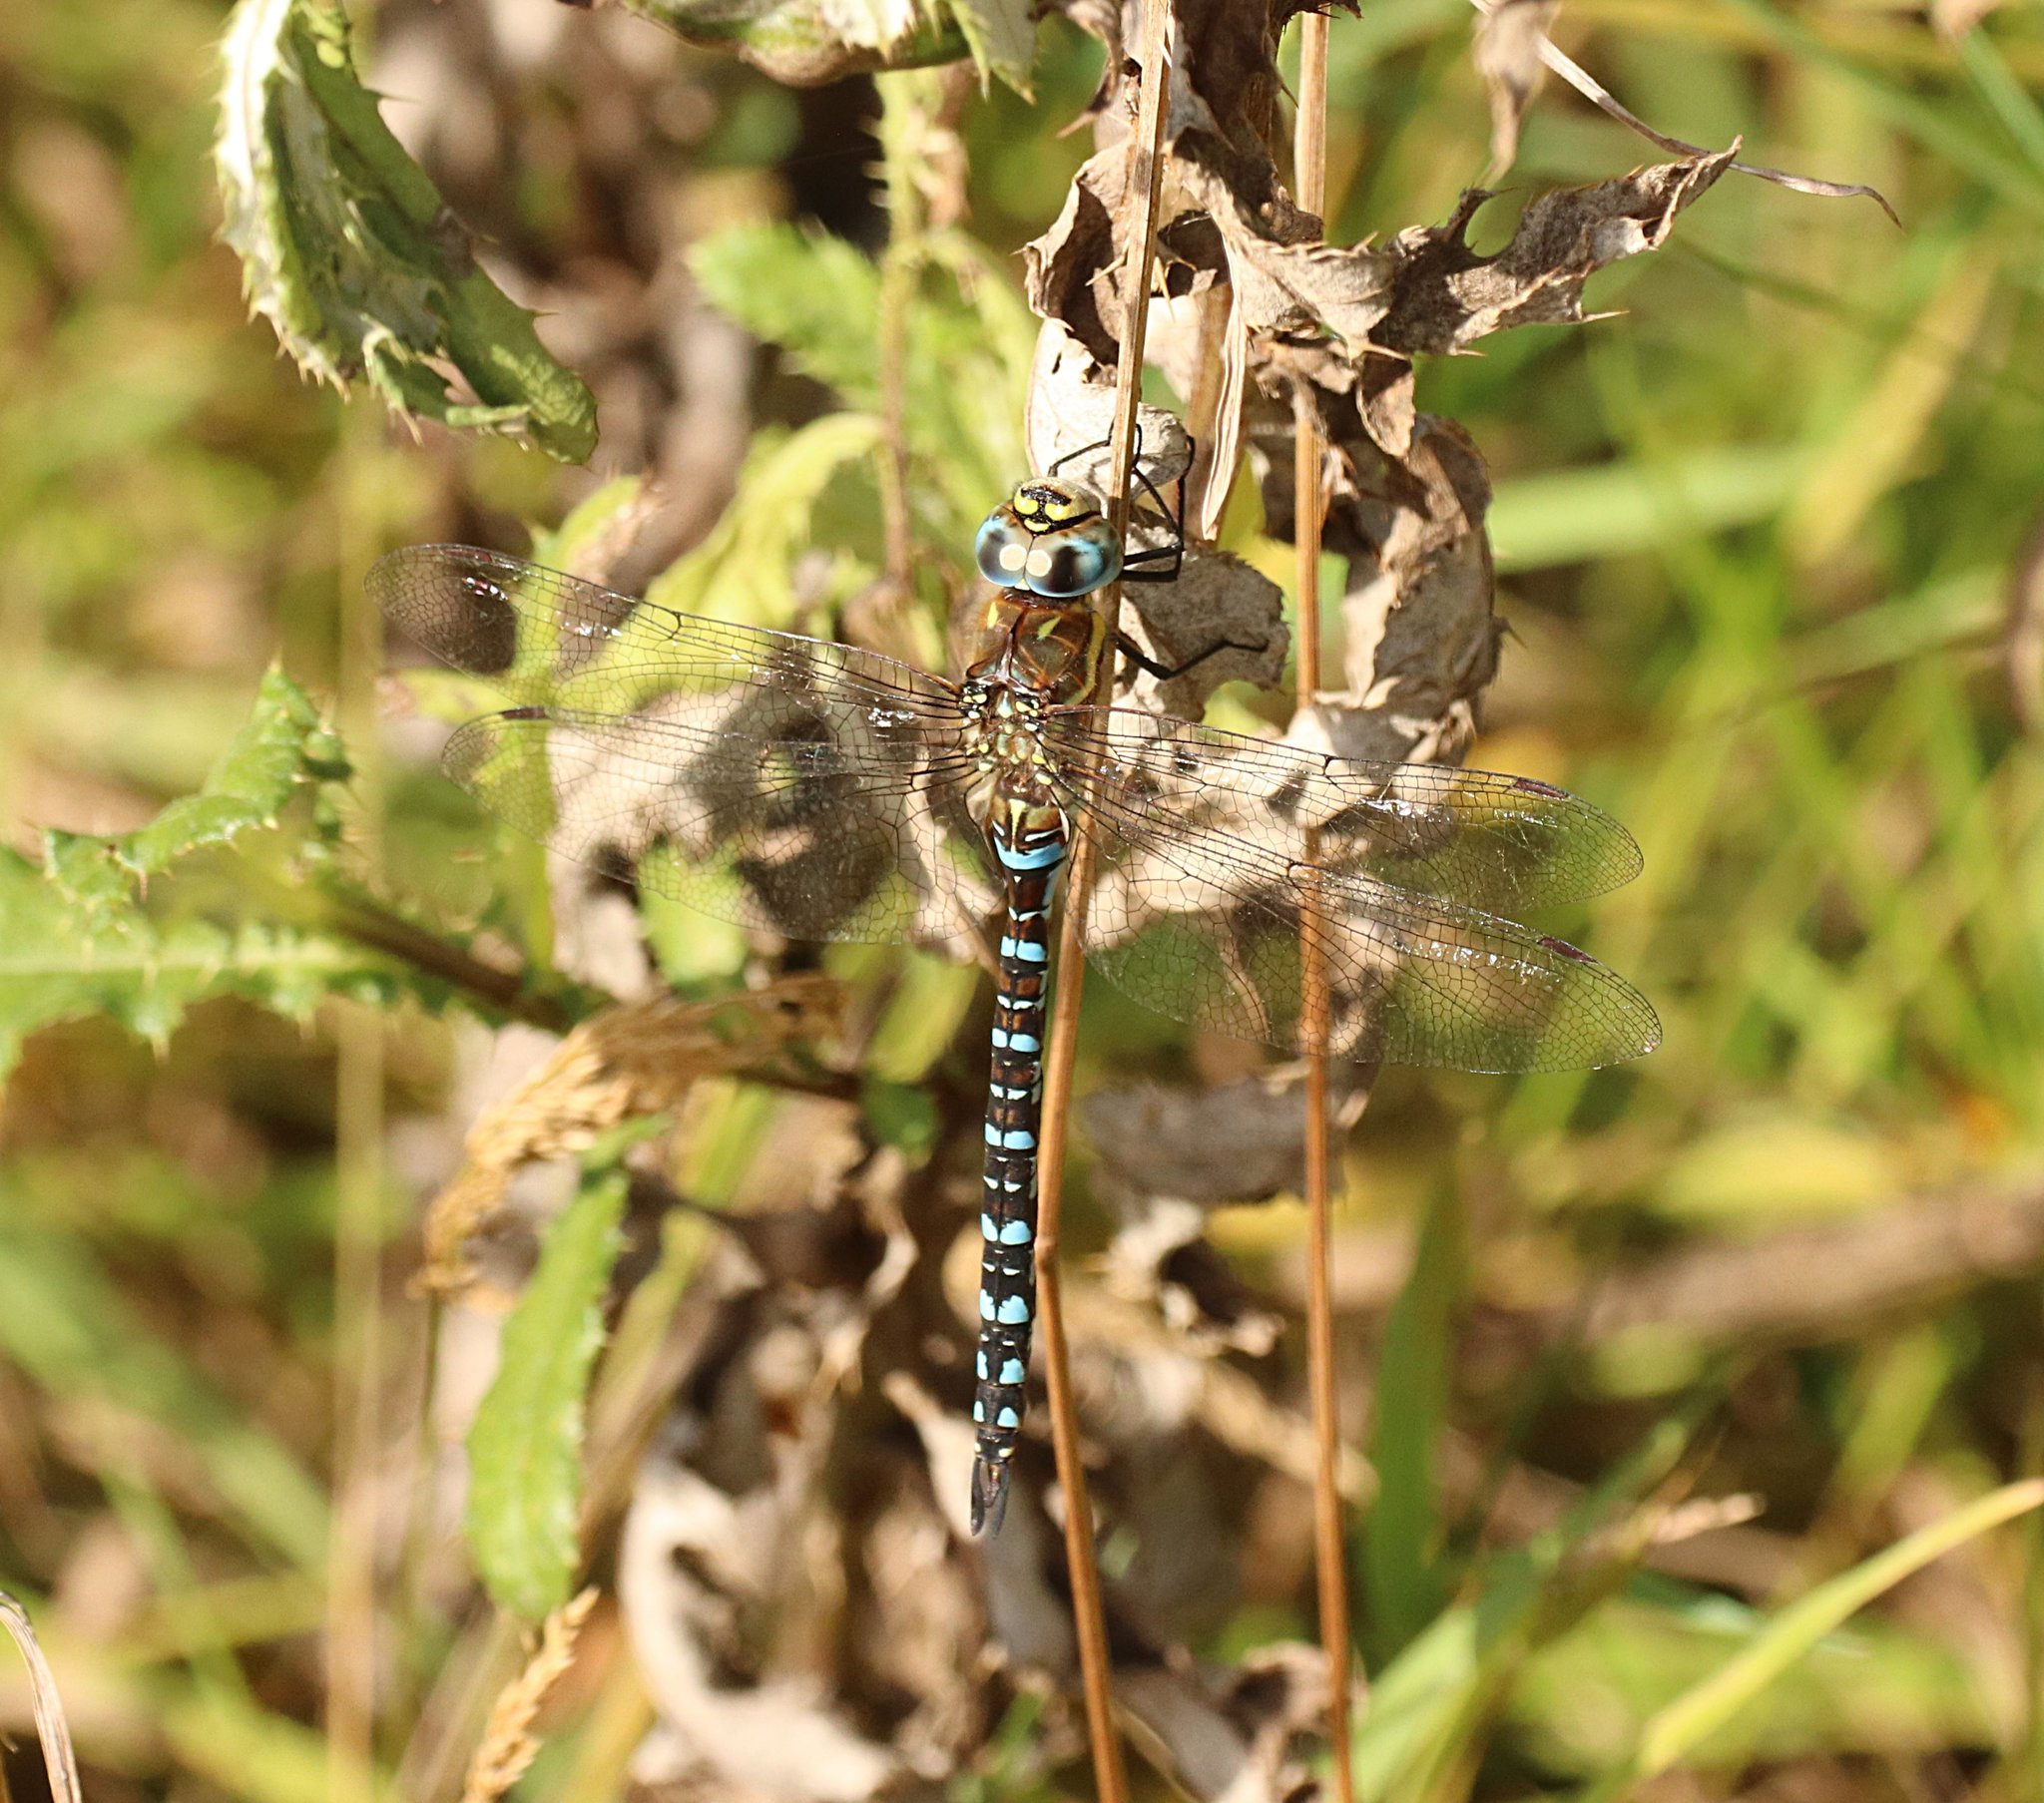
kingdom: Animalia
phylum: Arthropoda
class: Insecta
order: Odonata
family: Aeshnidae
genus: Aeshna
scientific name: Aeshna mixta
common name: Migrant hawker
